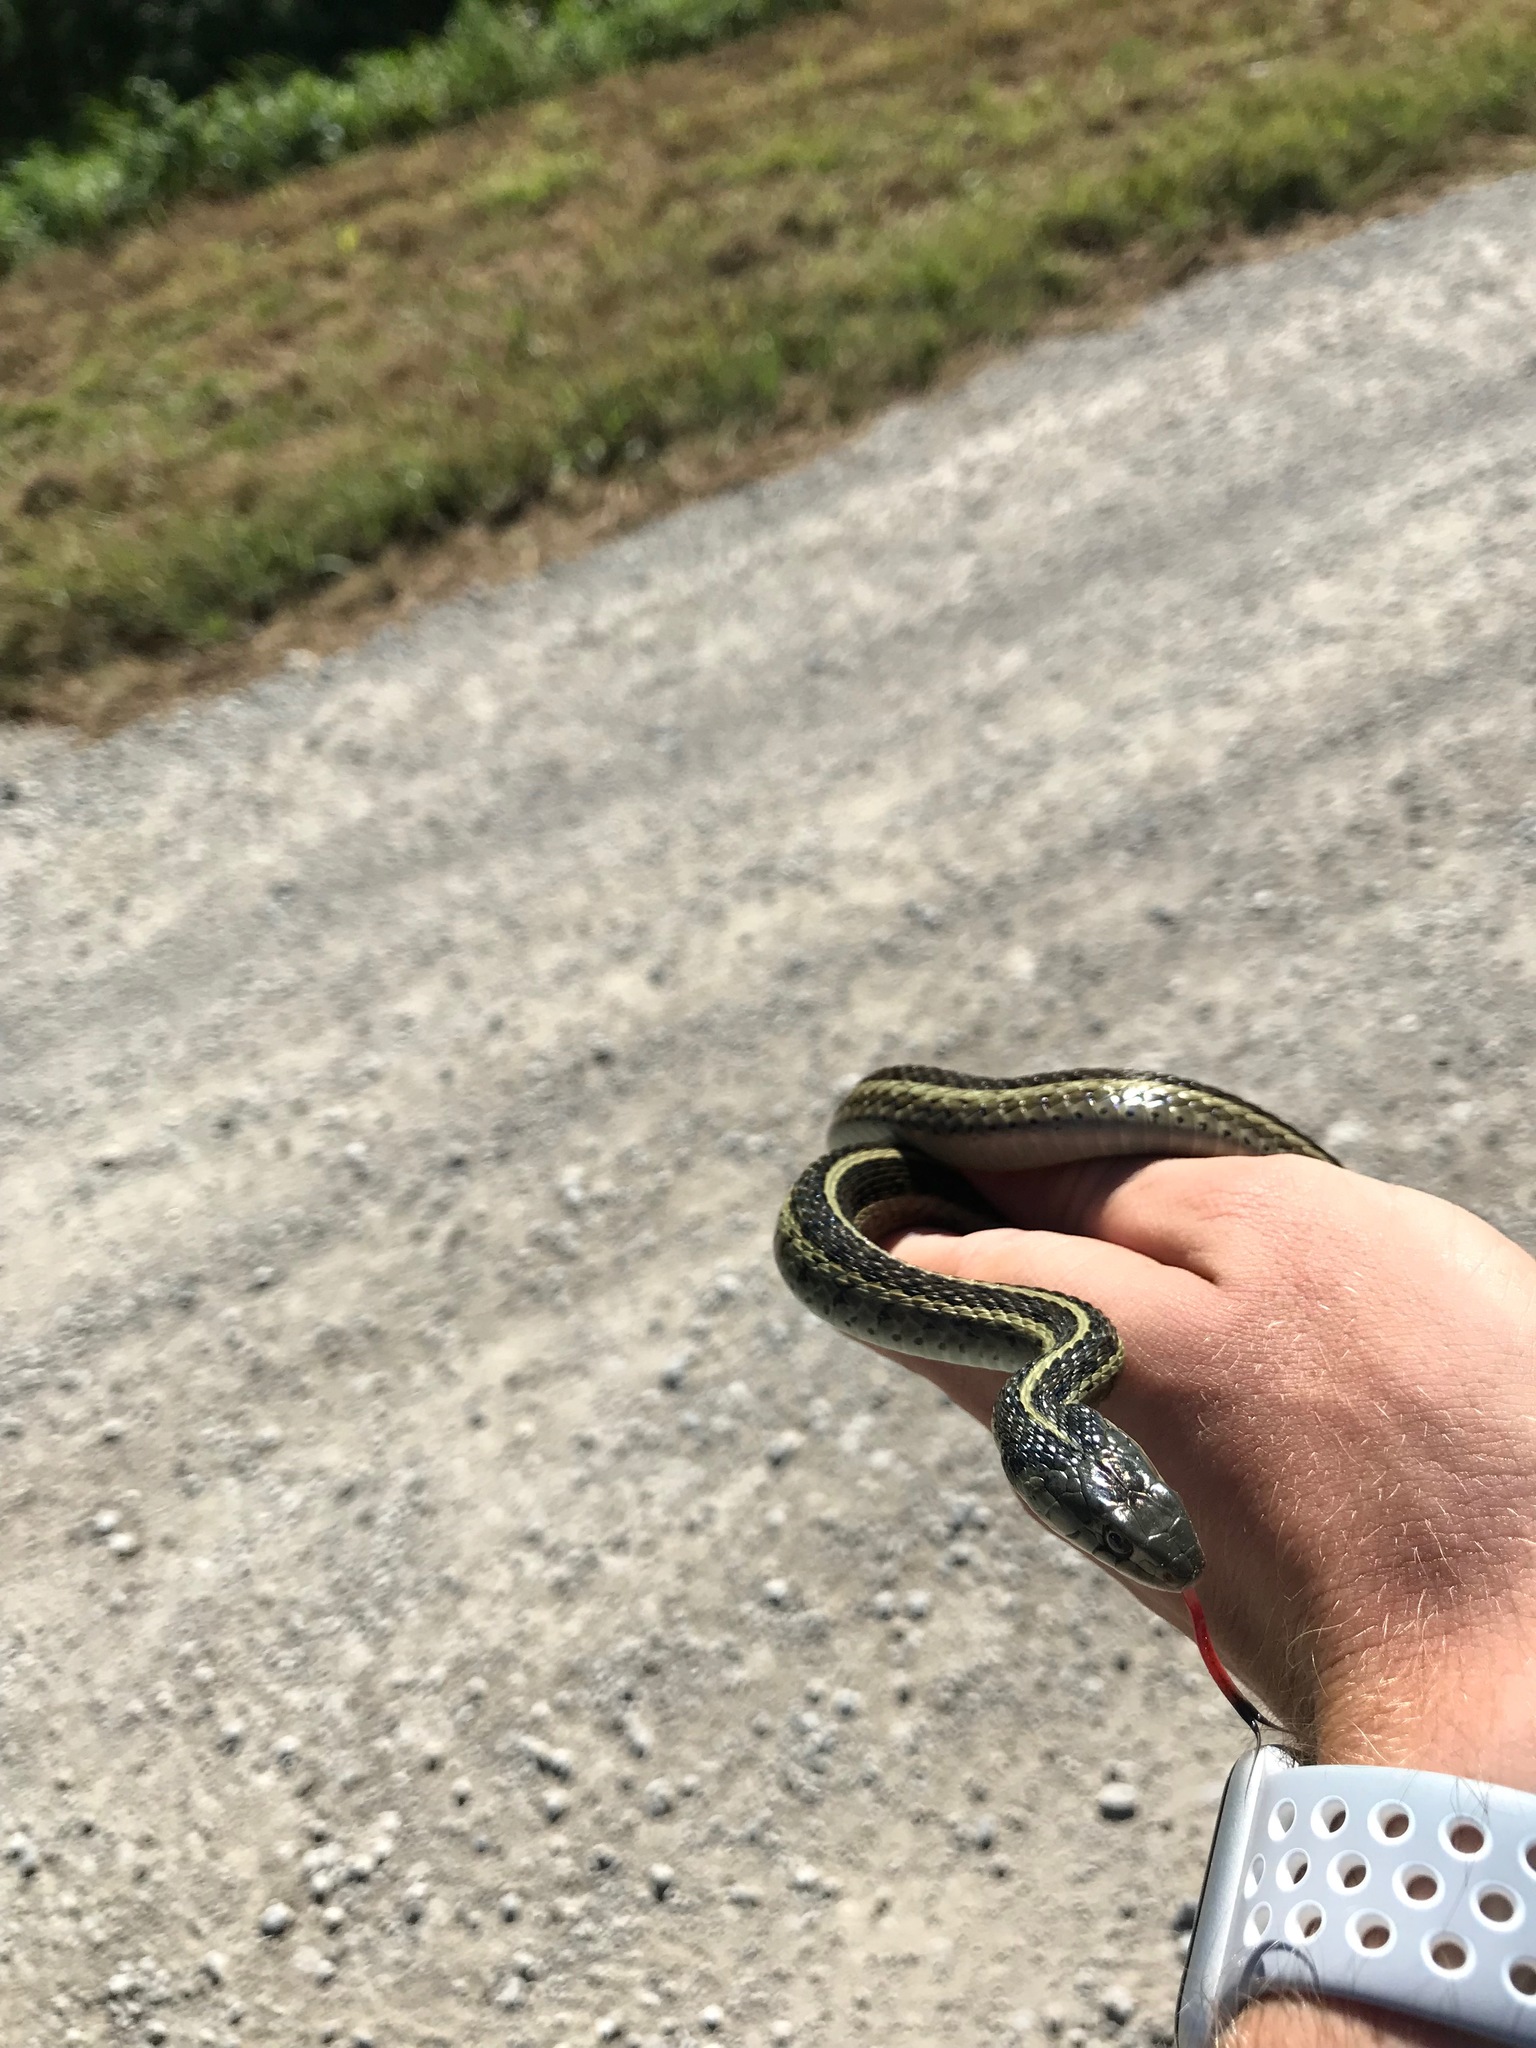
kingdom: Animalia
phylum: Chordata
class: Squamata
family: Colubridae
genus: Thamnophis
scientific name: Thamnophis sirtalis
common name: Common garter snake
